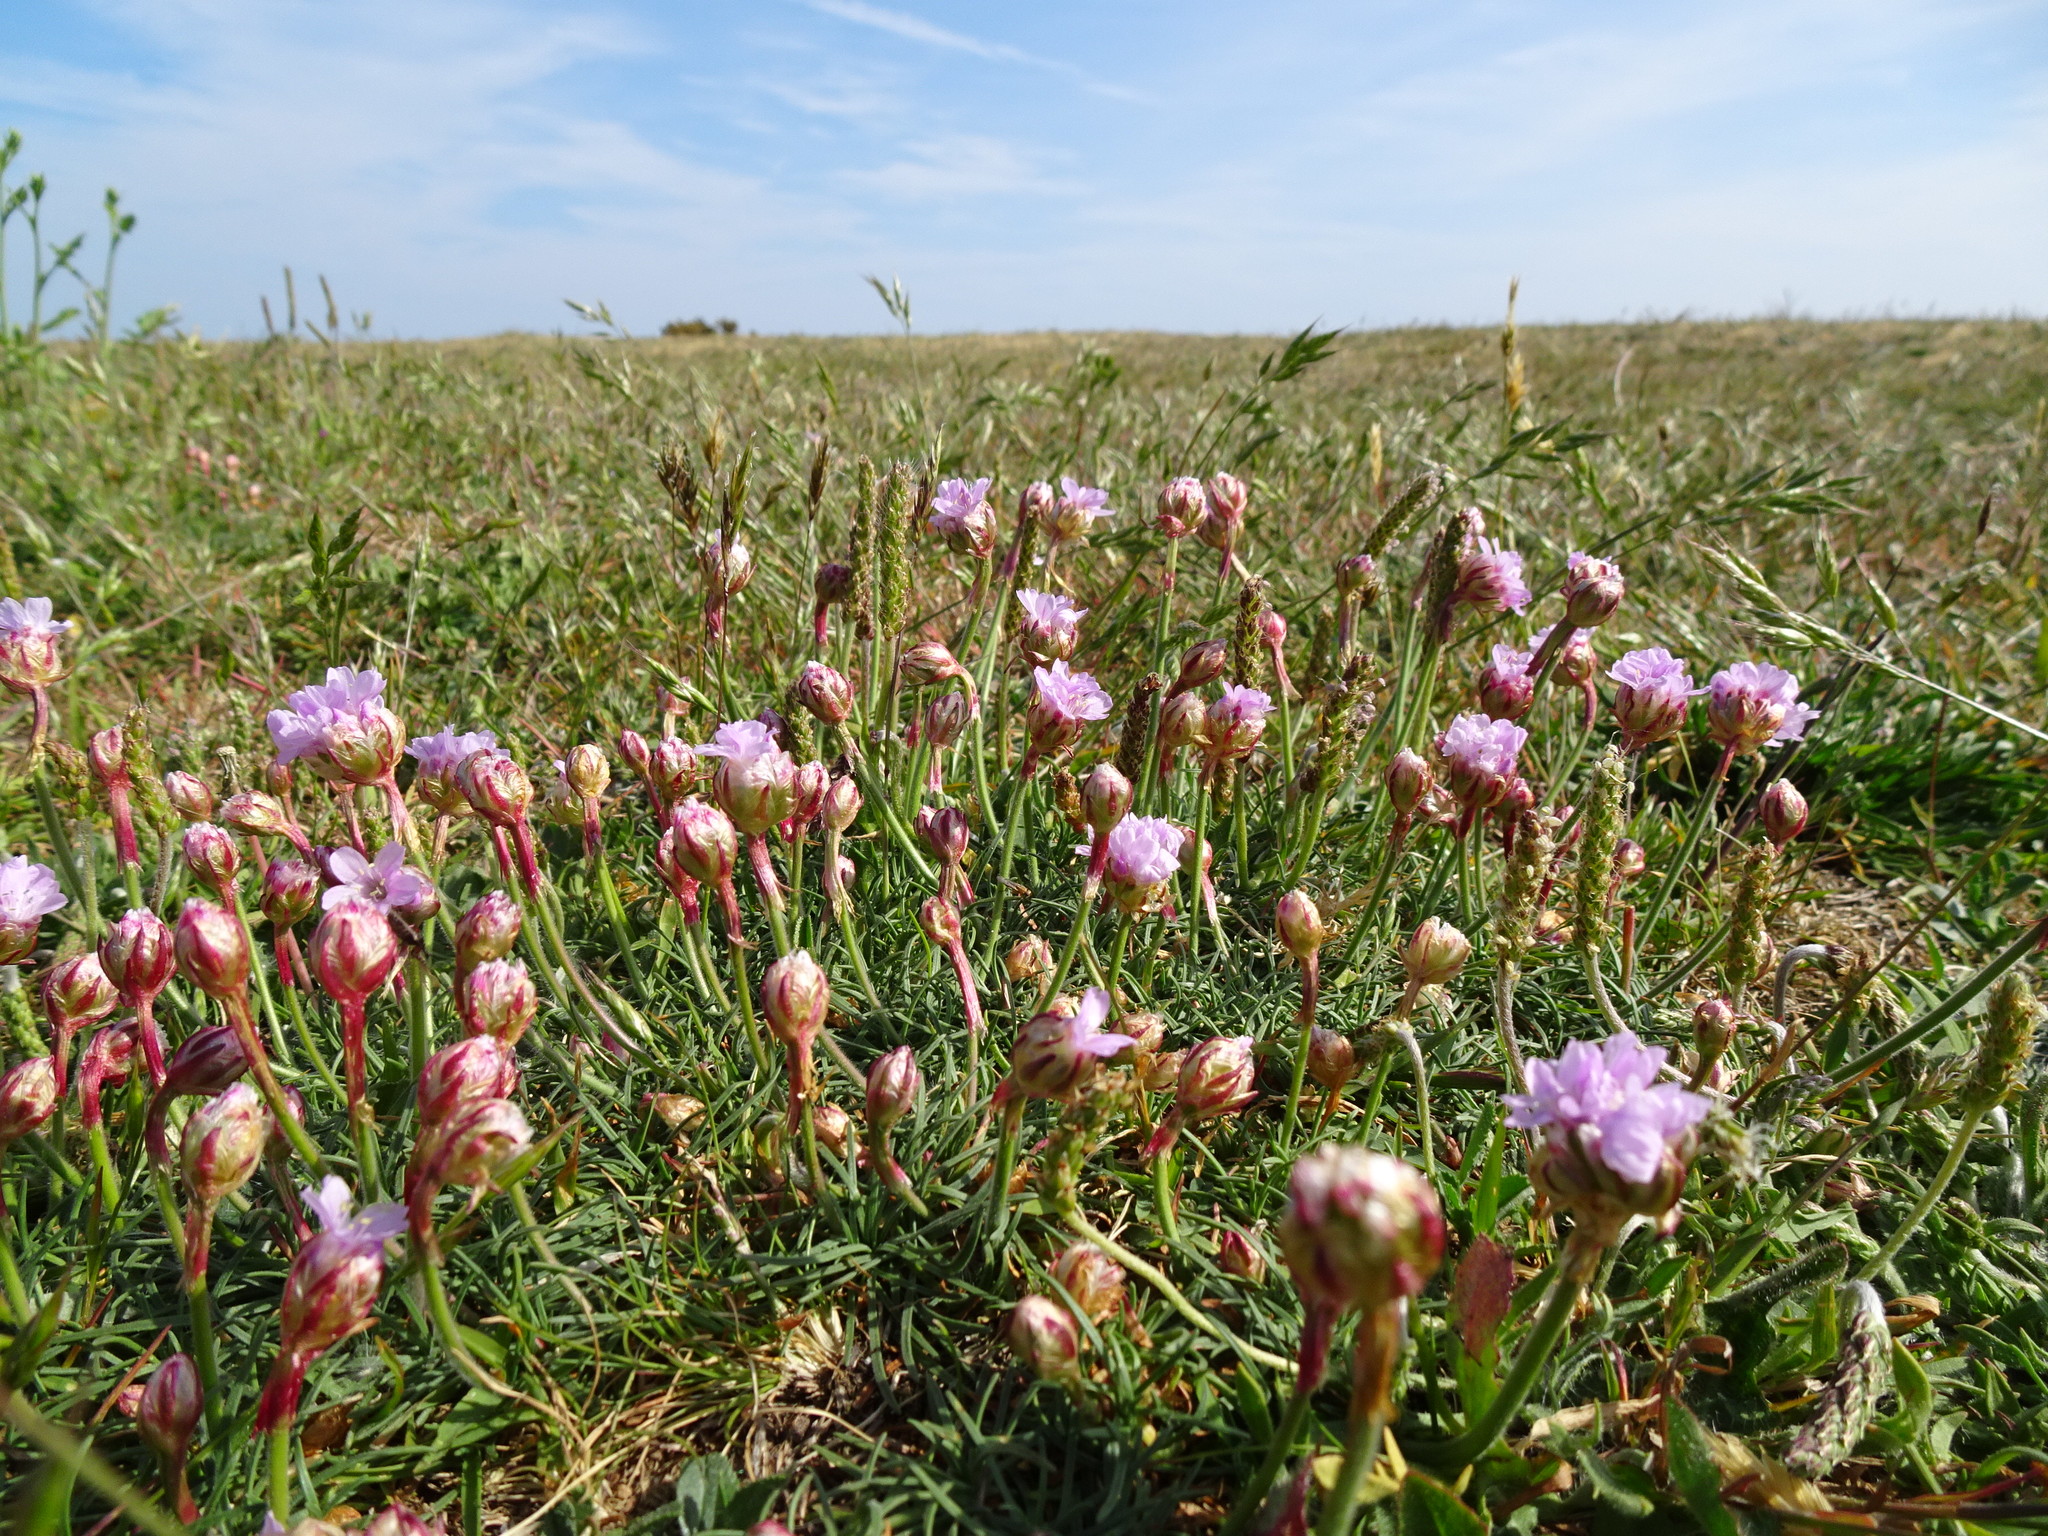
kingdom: Plantae
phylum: Tracheophyta
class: Magnoliopsida
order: Caryophyllales
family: Plumbaginaceae
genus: Armeria
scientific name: Armeria maritima
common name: Thrift
